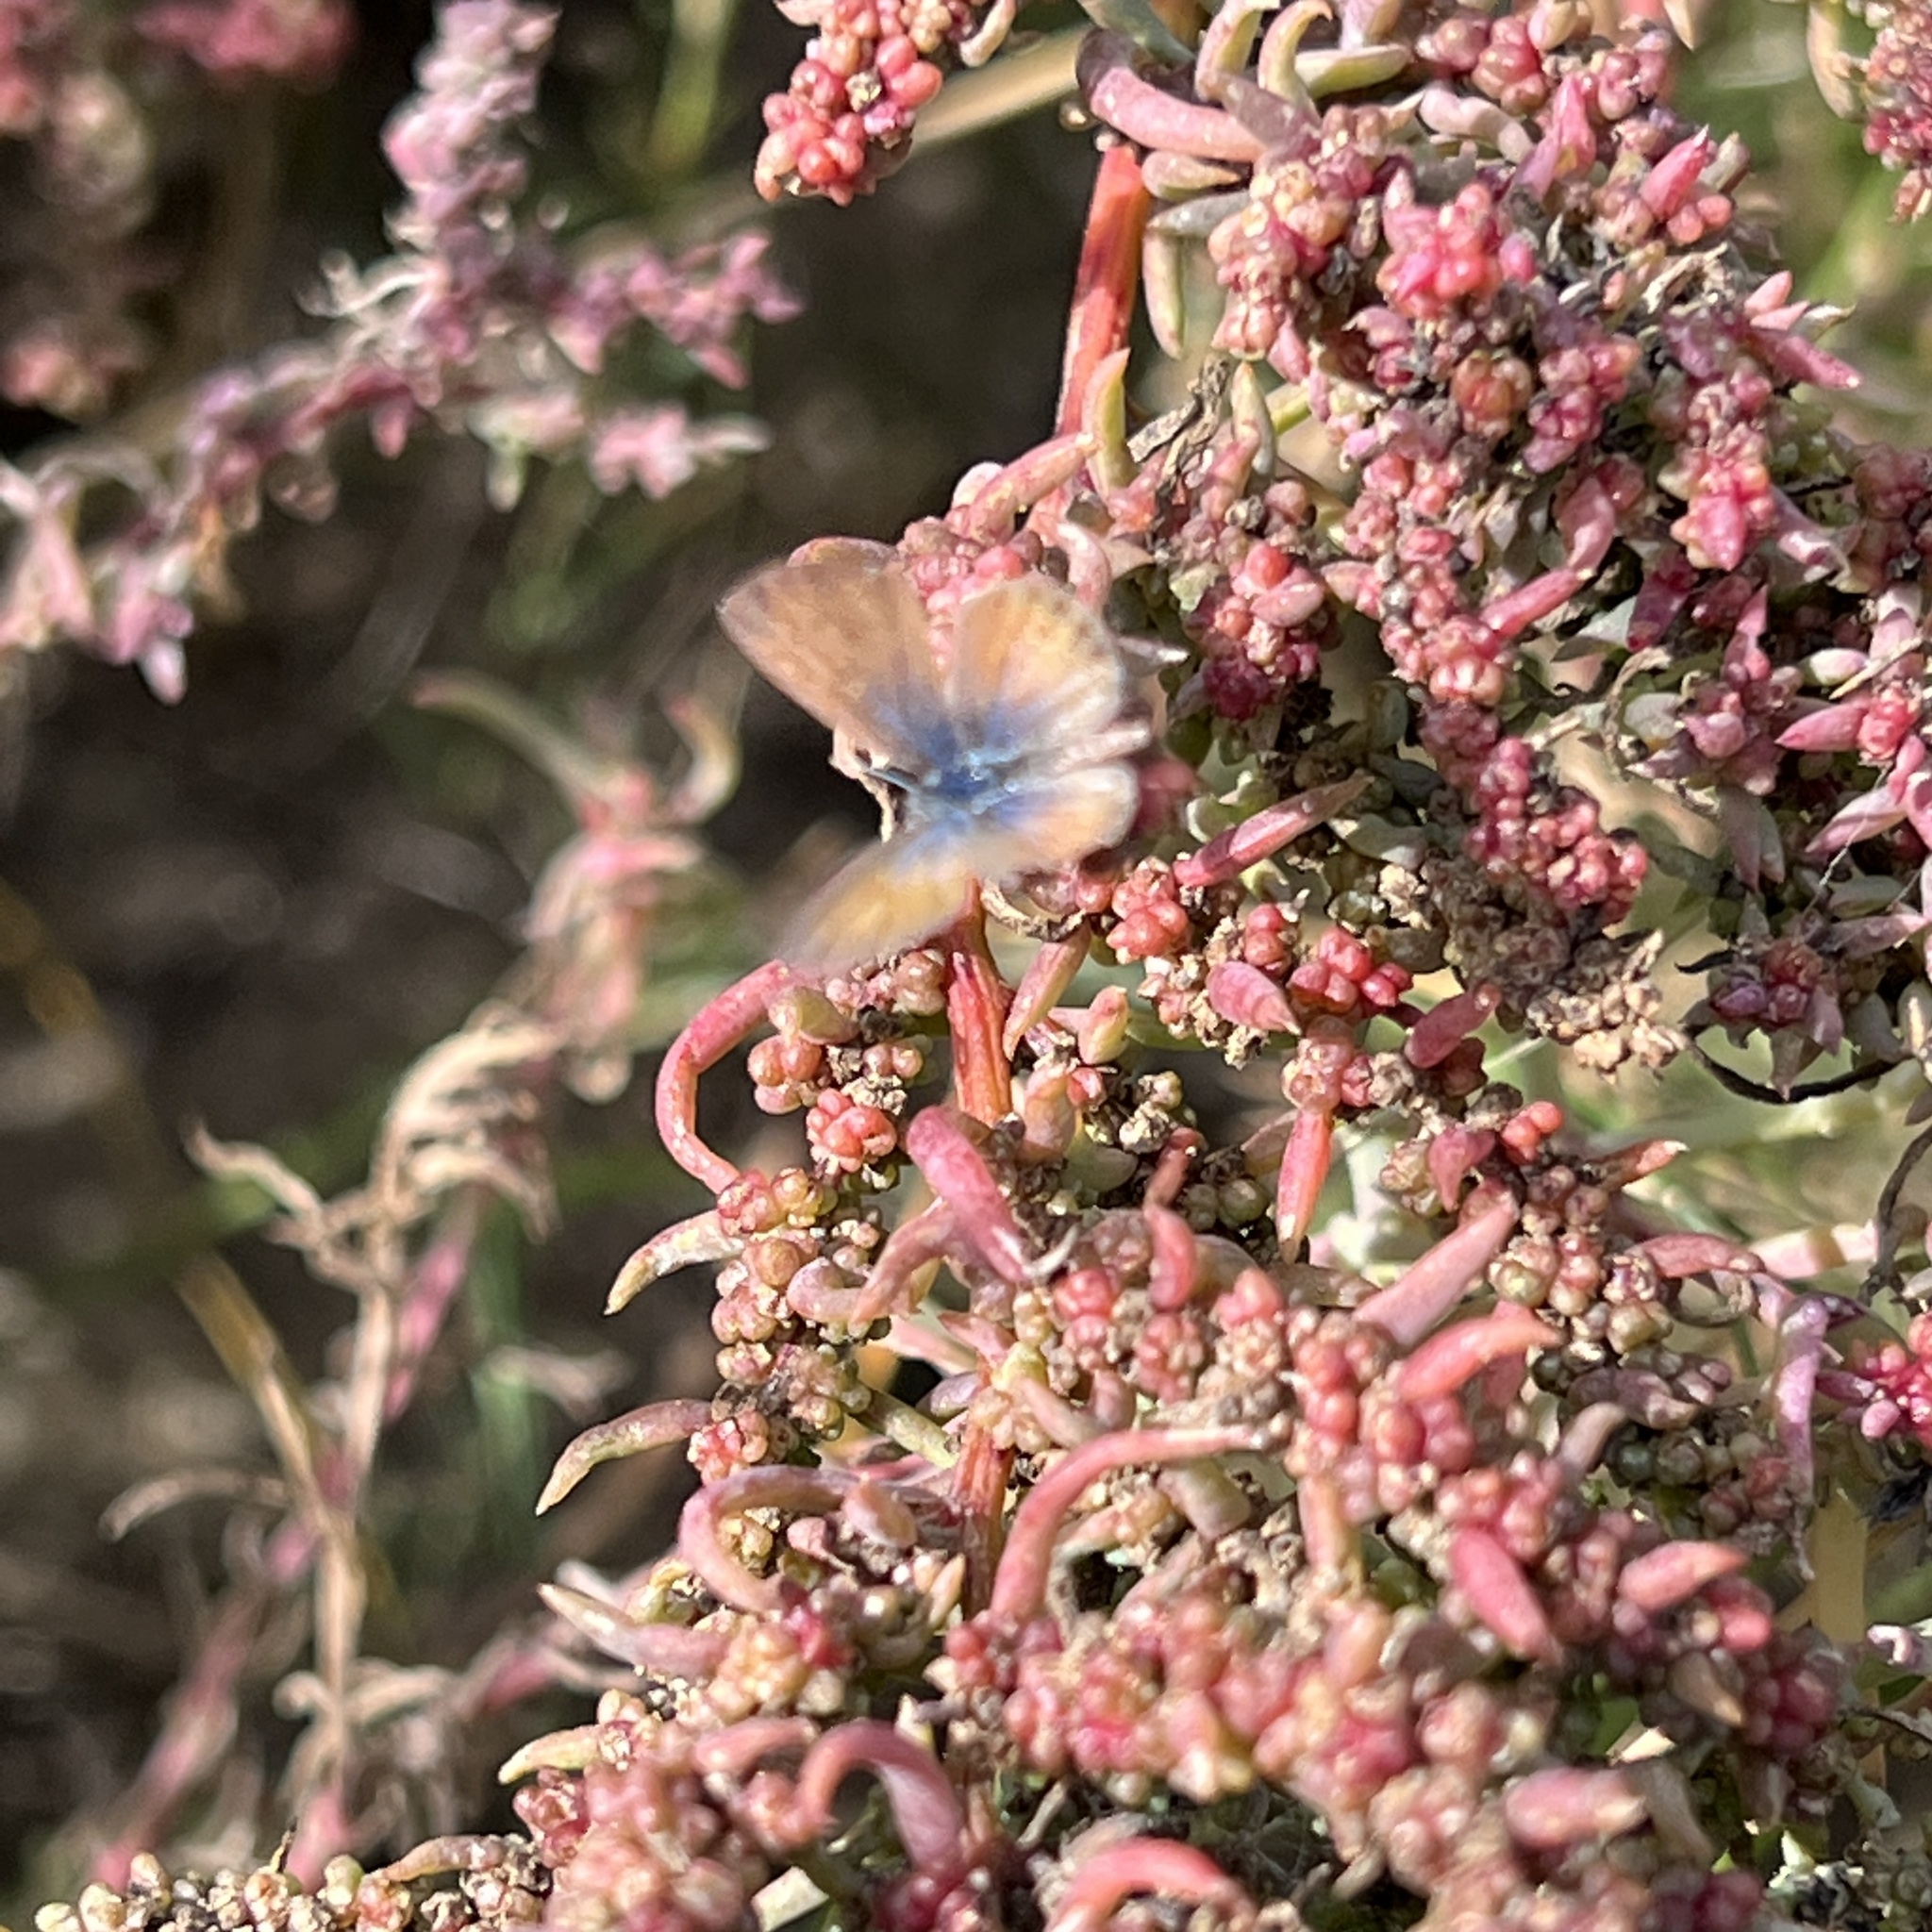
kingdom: Animalia
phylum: Arthropoda
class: Insecta
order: Lepidoptera
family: Lycaenidae
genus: Brephidium
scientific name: Brephidium exilis
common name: Pygmy blue
